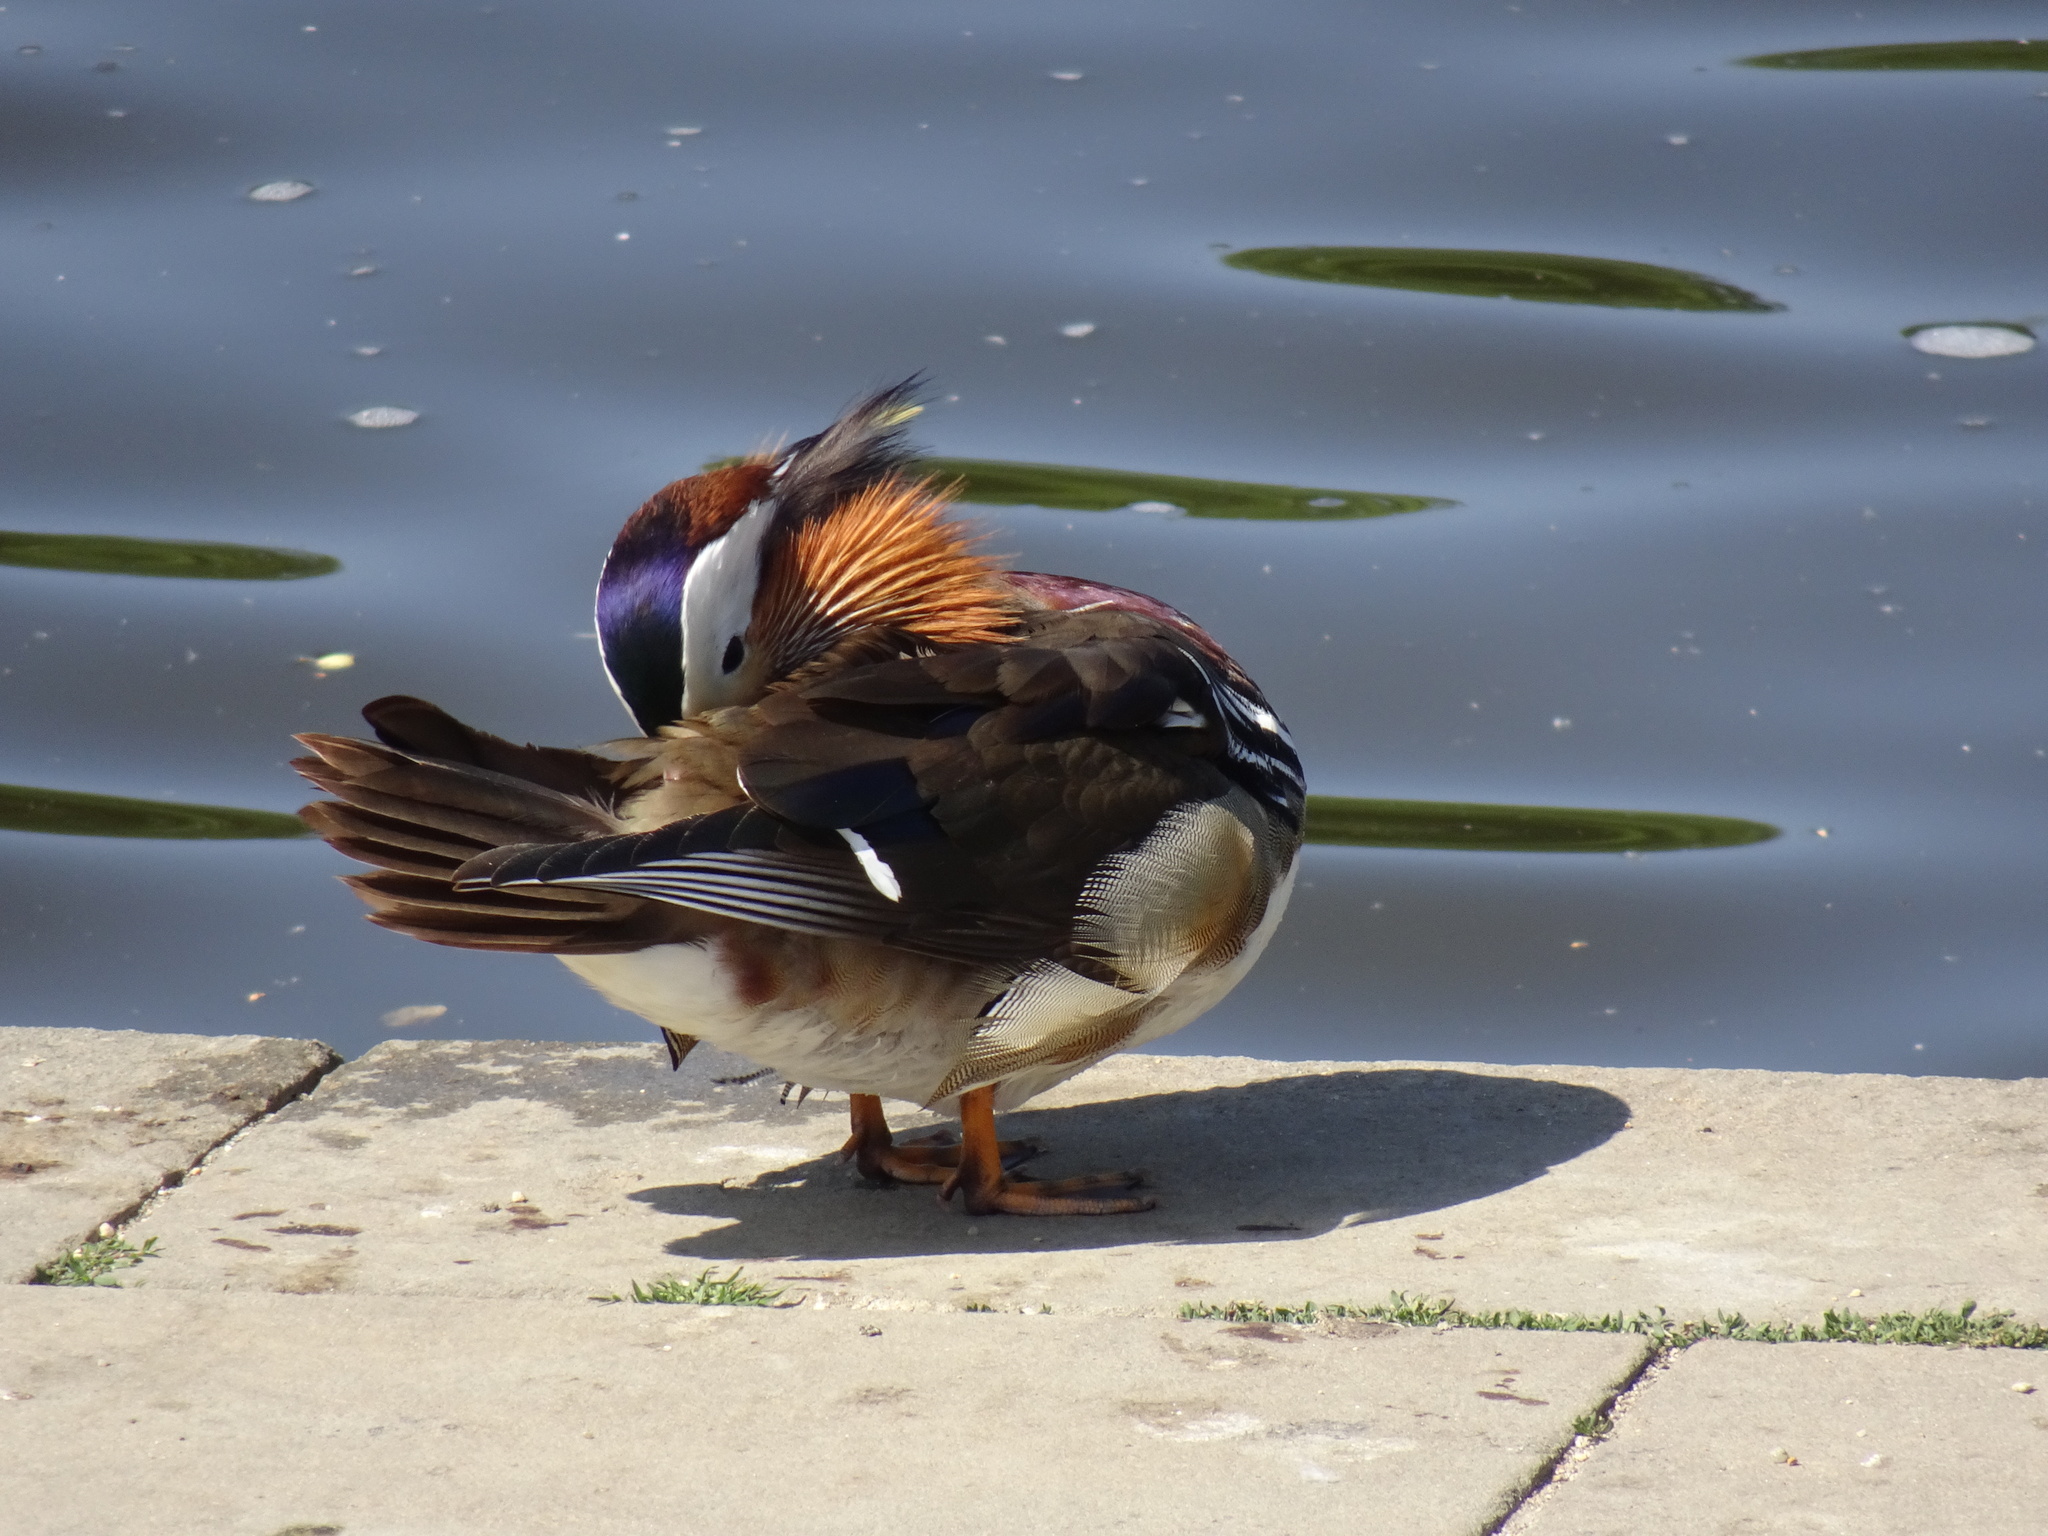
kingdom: Animalia
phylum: Chordata
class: Aves
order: Anseriformes
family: Anatidae
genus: Aix
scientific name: Aix galericulata
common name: Mandarin duck
